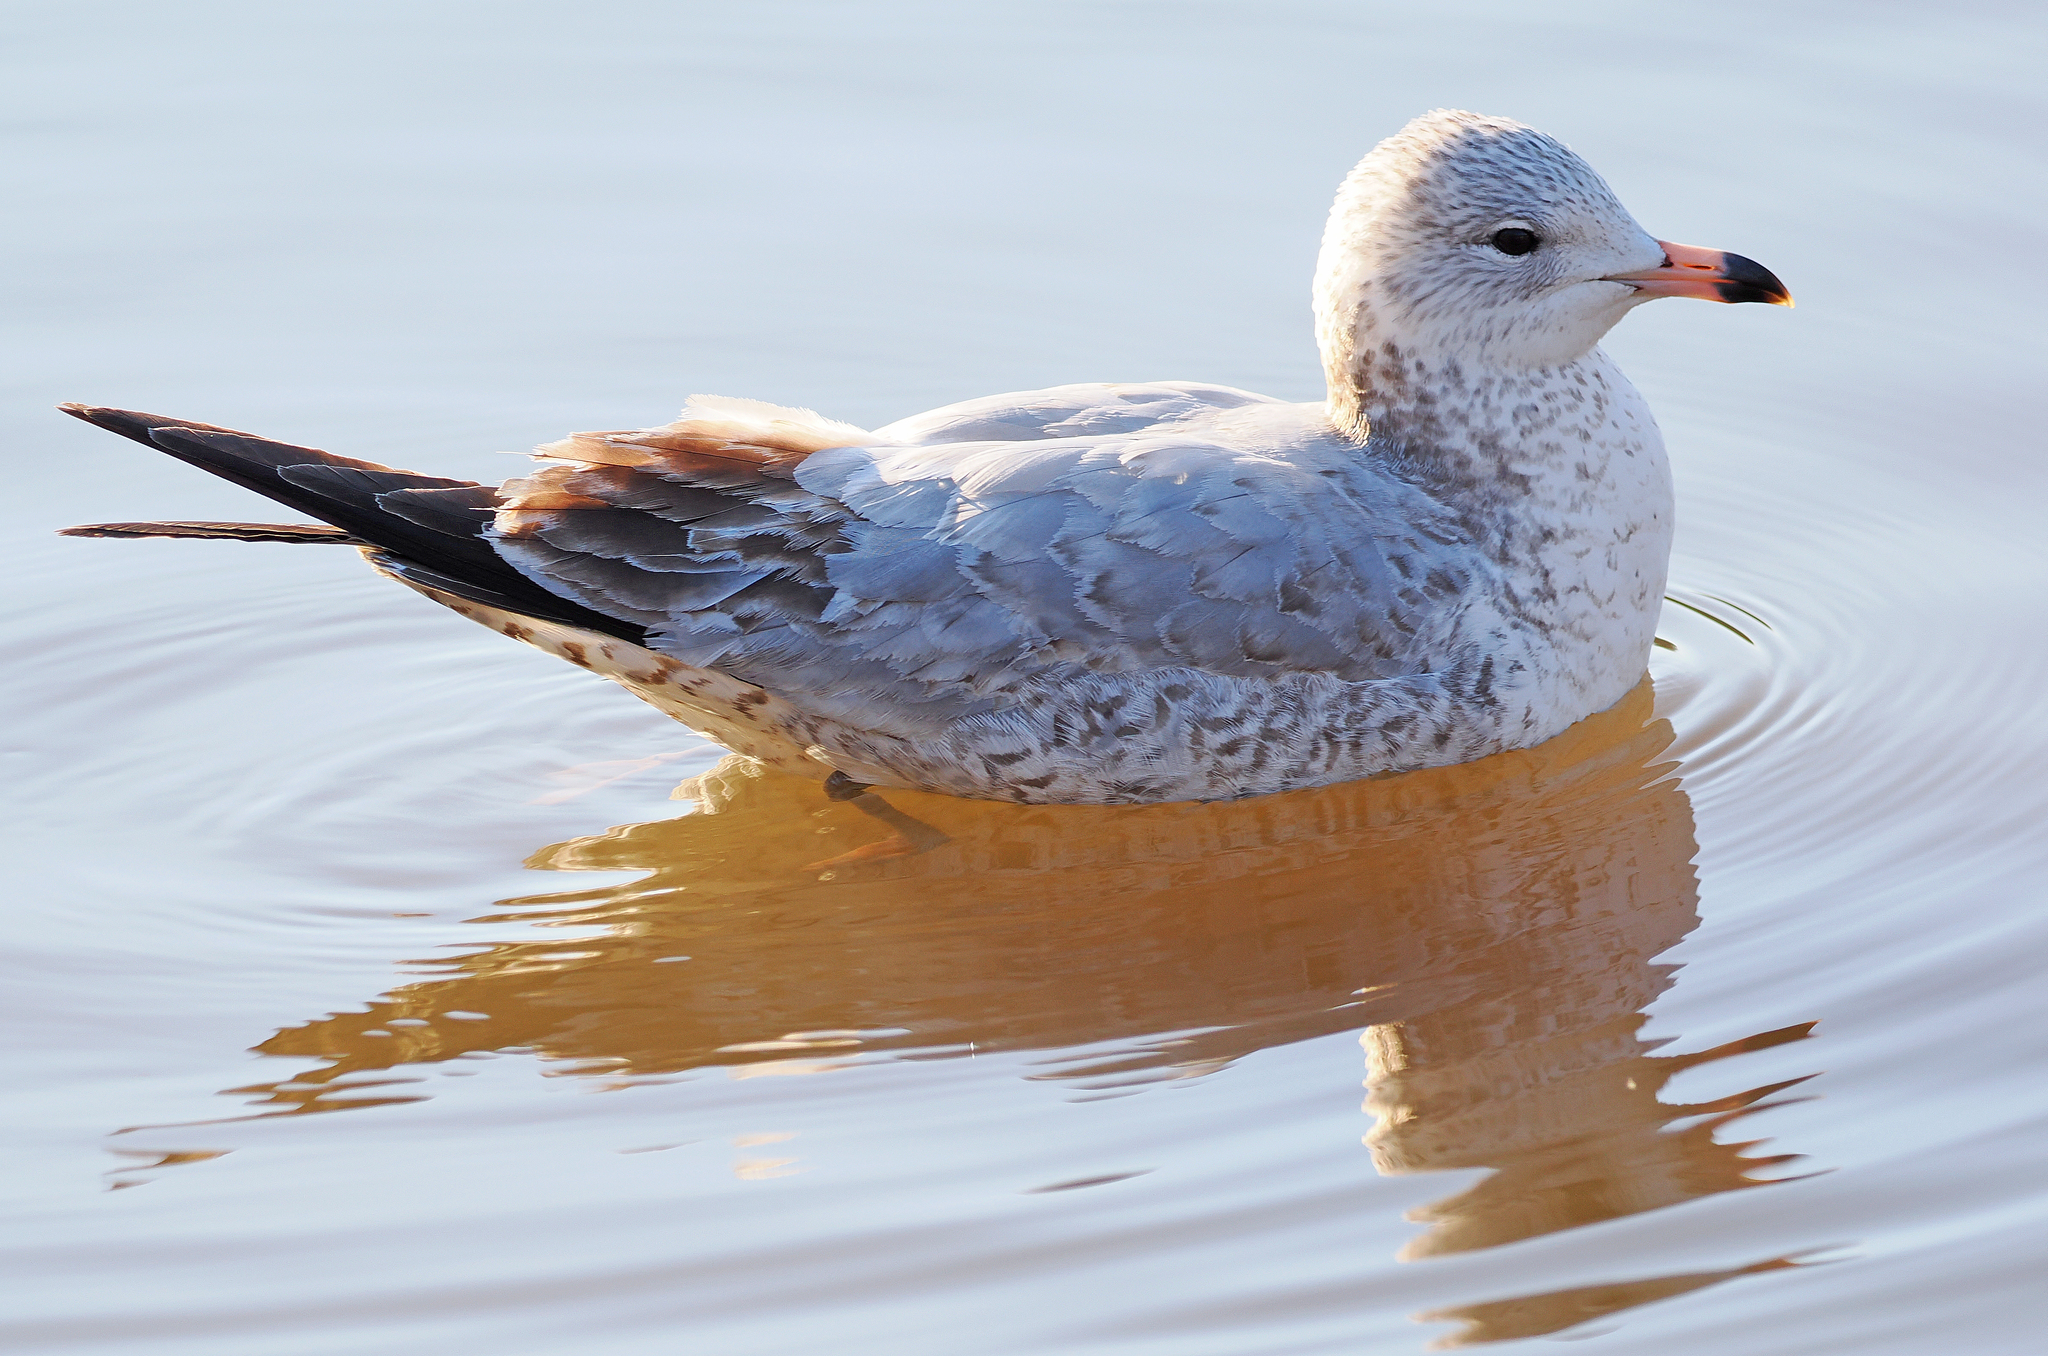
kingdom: Animalia
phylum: Chordata
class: Aves
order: Charadriiformes
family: Laridae
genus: Larus
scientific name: Larus delawarensis
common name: Ring-billed gull
